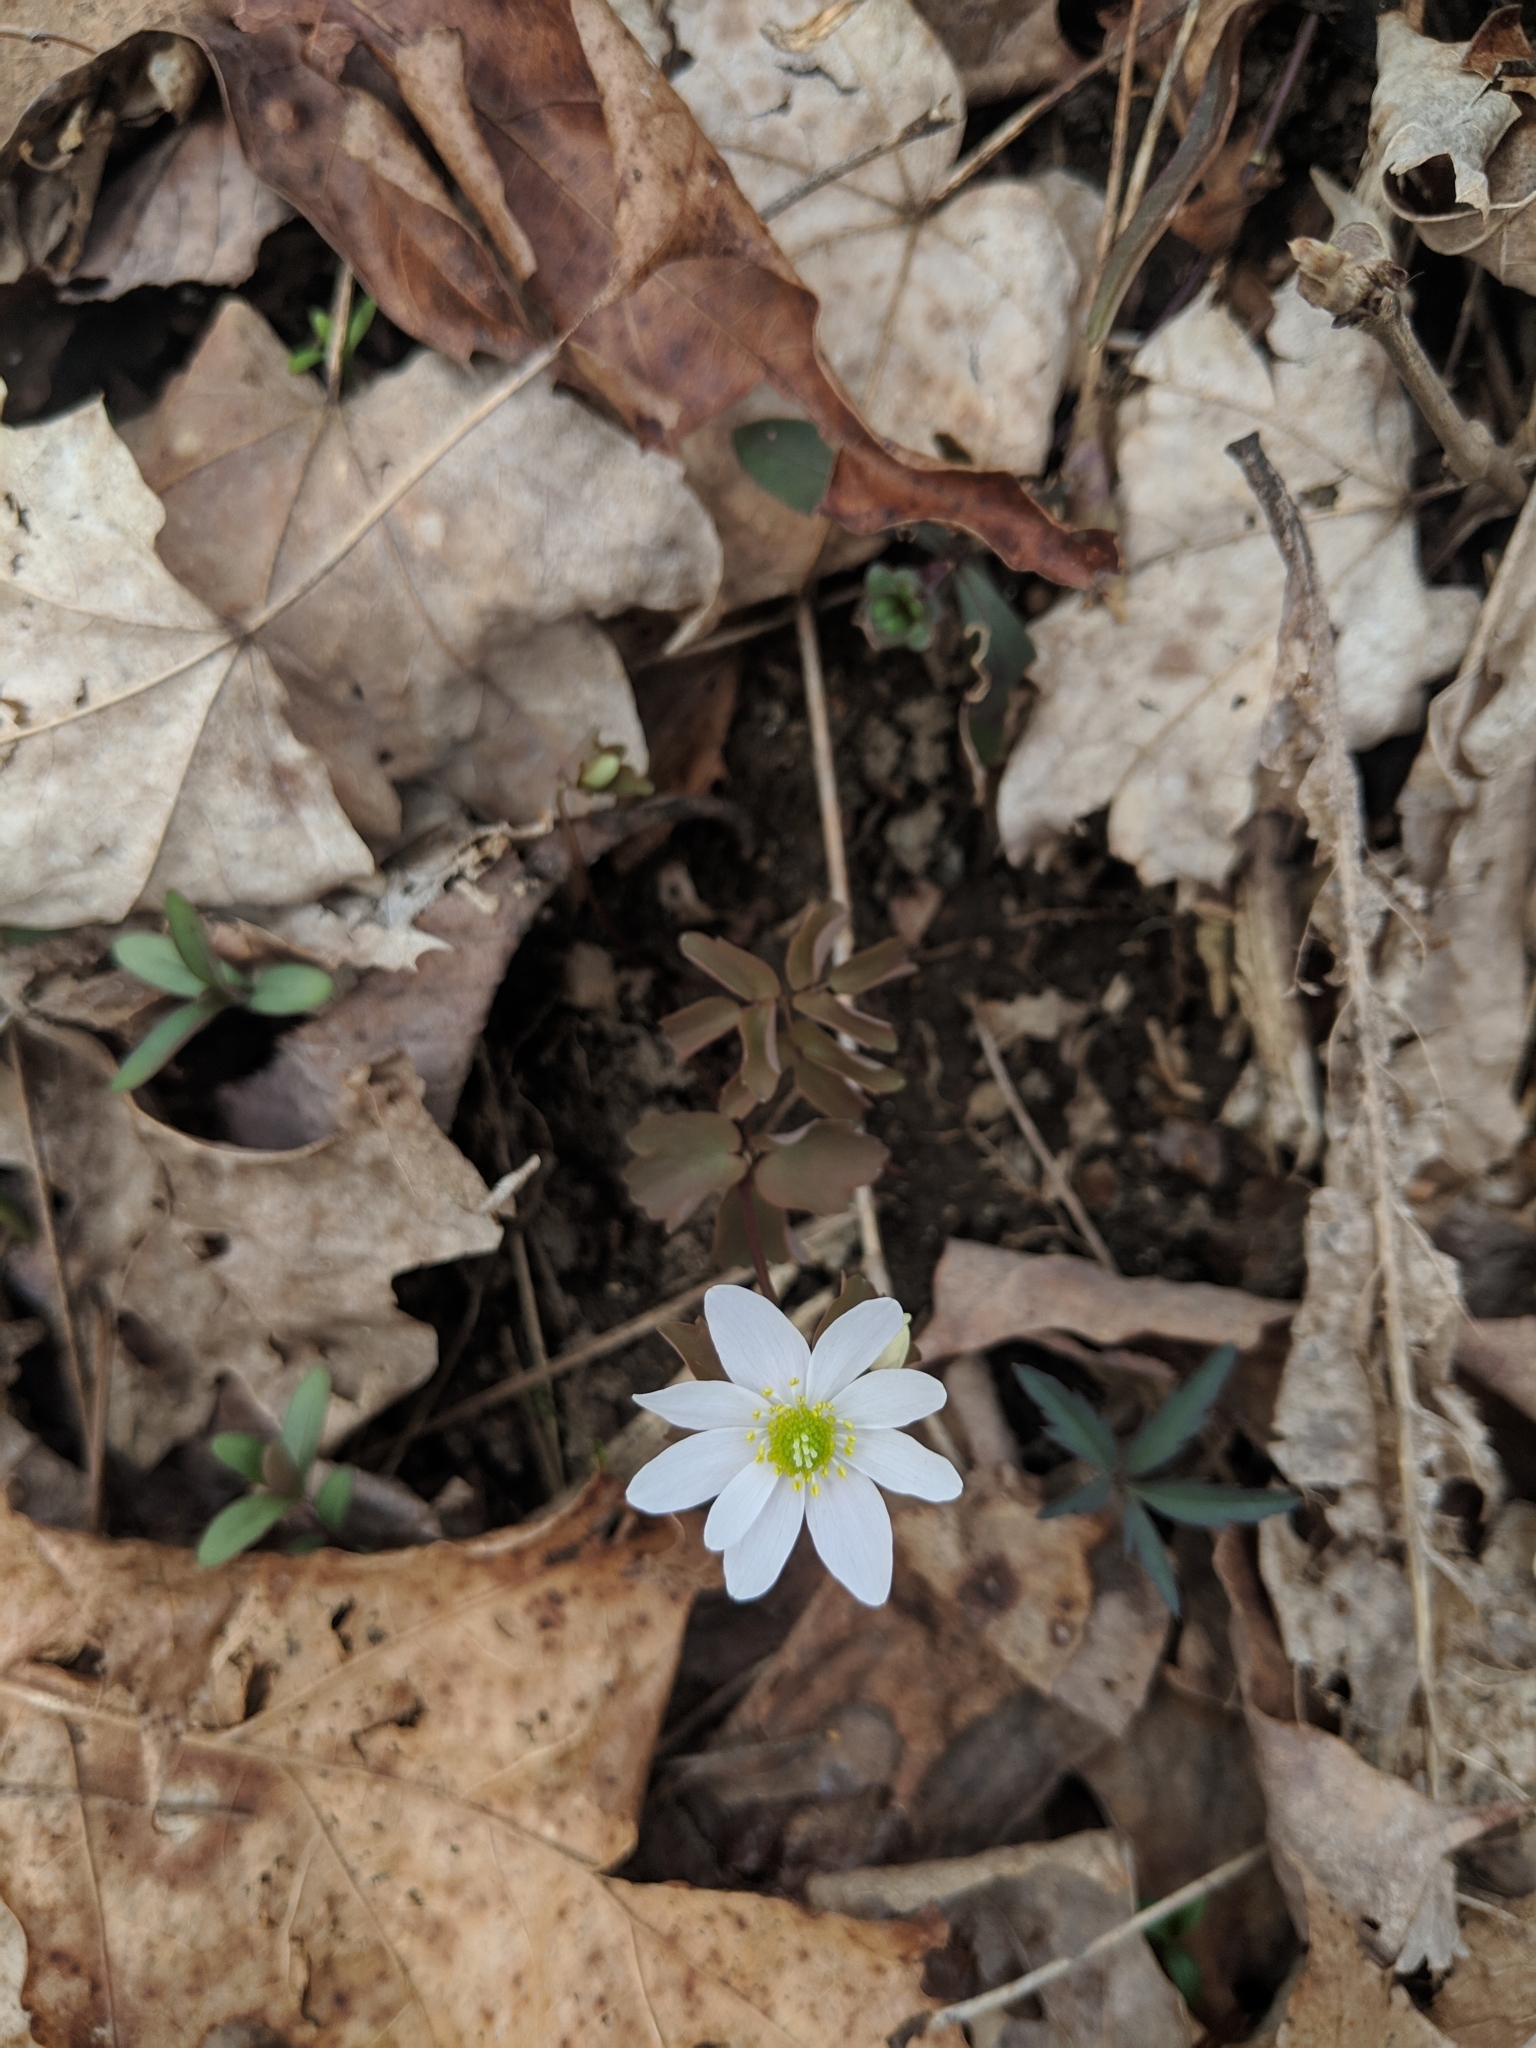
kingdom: Plantae
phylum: Tracheophyta
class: Magnoliopsida
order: Ranunculales
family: Ranunculaceae
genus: Thalictrum
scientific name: Thalictrum thalictroides
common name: Rue-anemone
